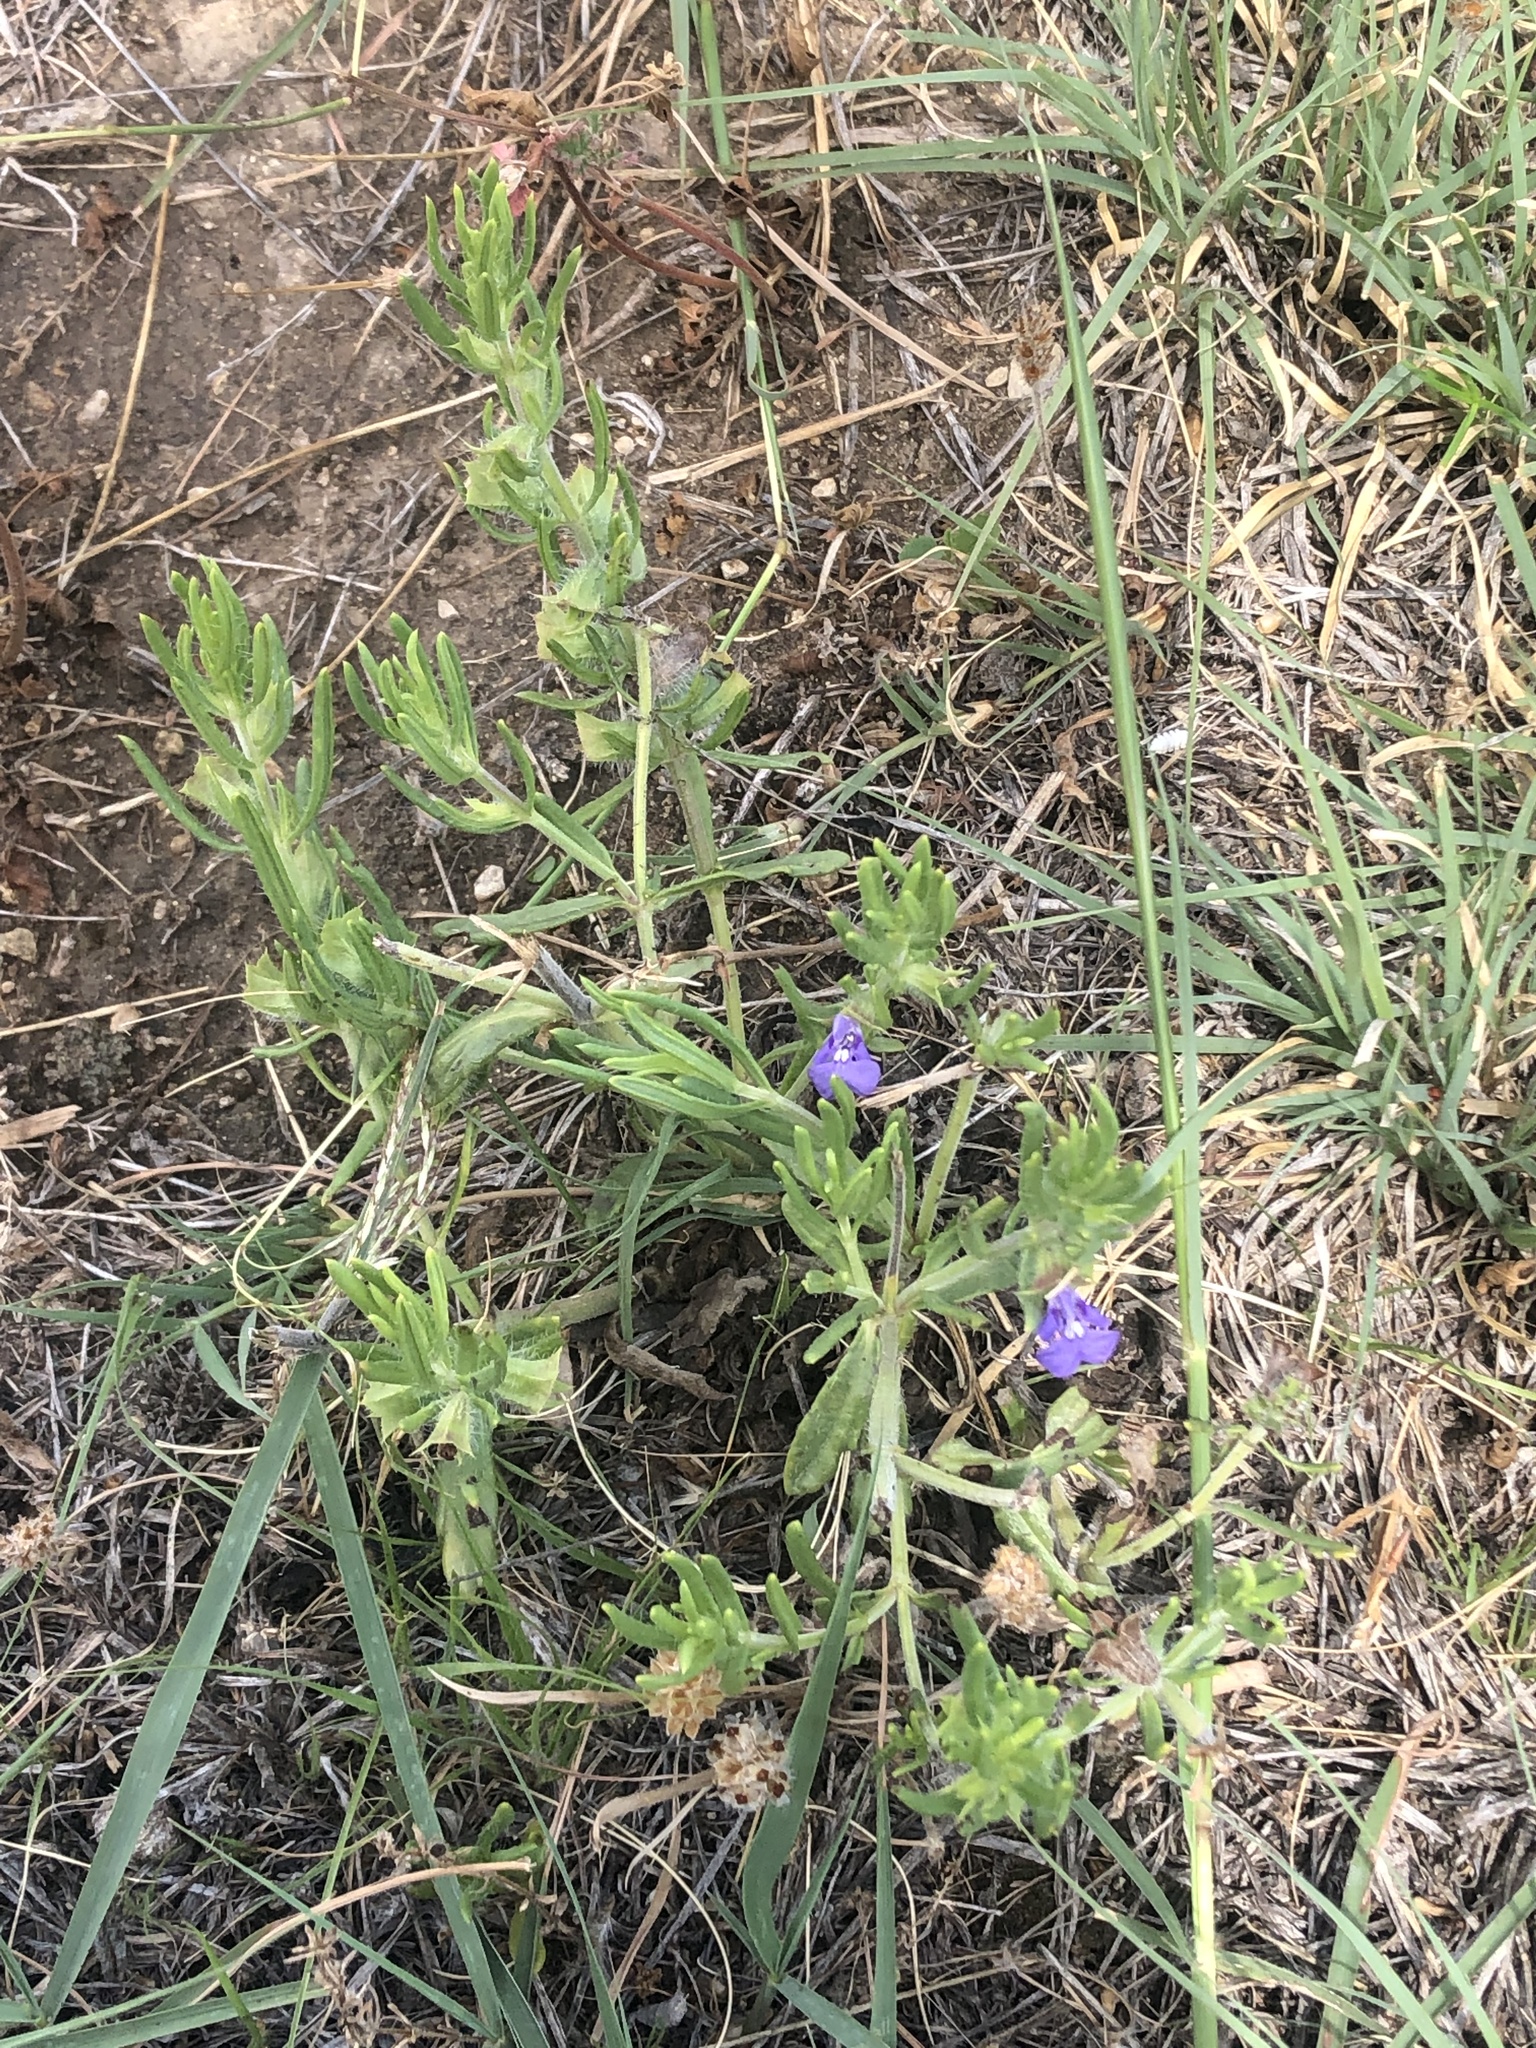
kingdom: Plantae
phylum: Tracheophyta
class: Magnoliopsida
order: Lamiales
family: Lamiaceae
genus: Salvia
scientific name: Salvia texana
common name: Texas sage
